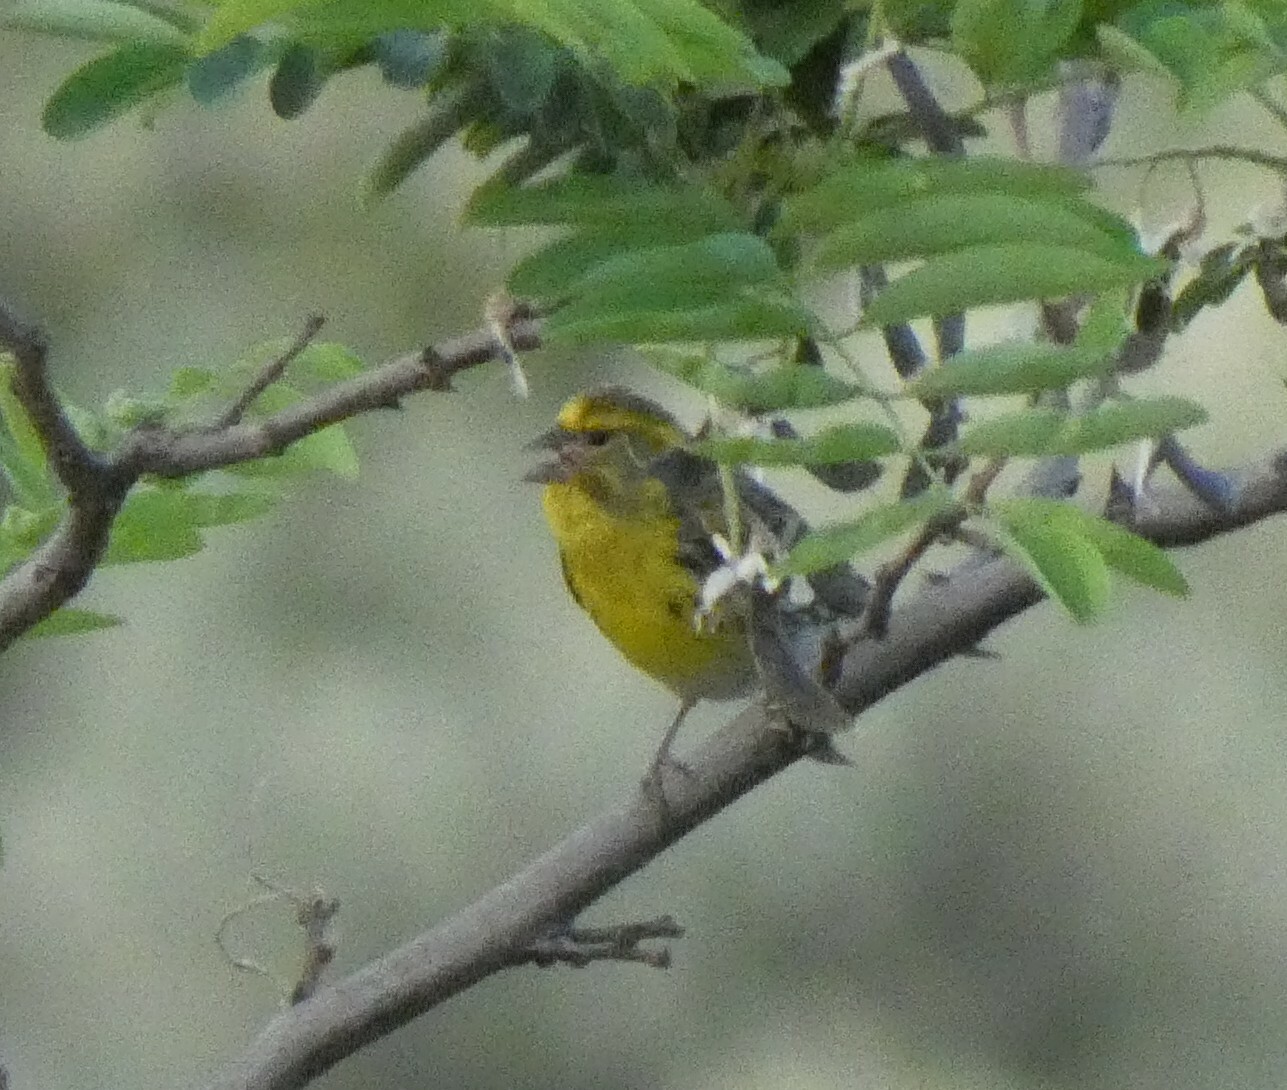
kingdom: Animalia
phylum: Chordata
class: Aves
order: Passeriformes
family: Fringillidae
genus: Serinus
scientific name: Serinus serinus
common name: European serin
